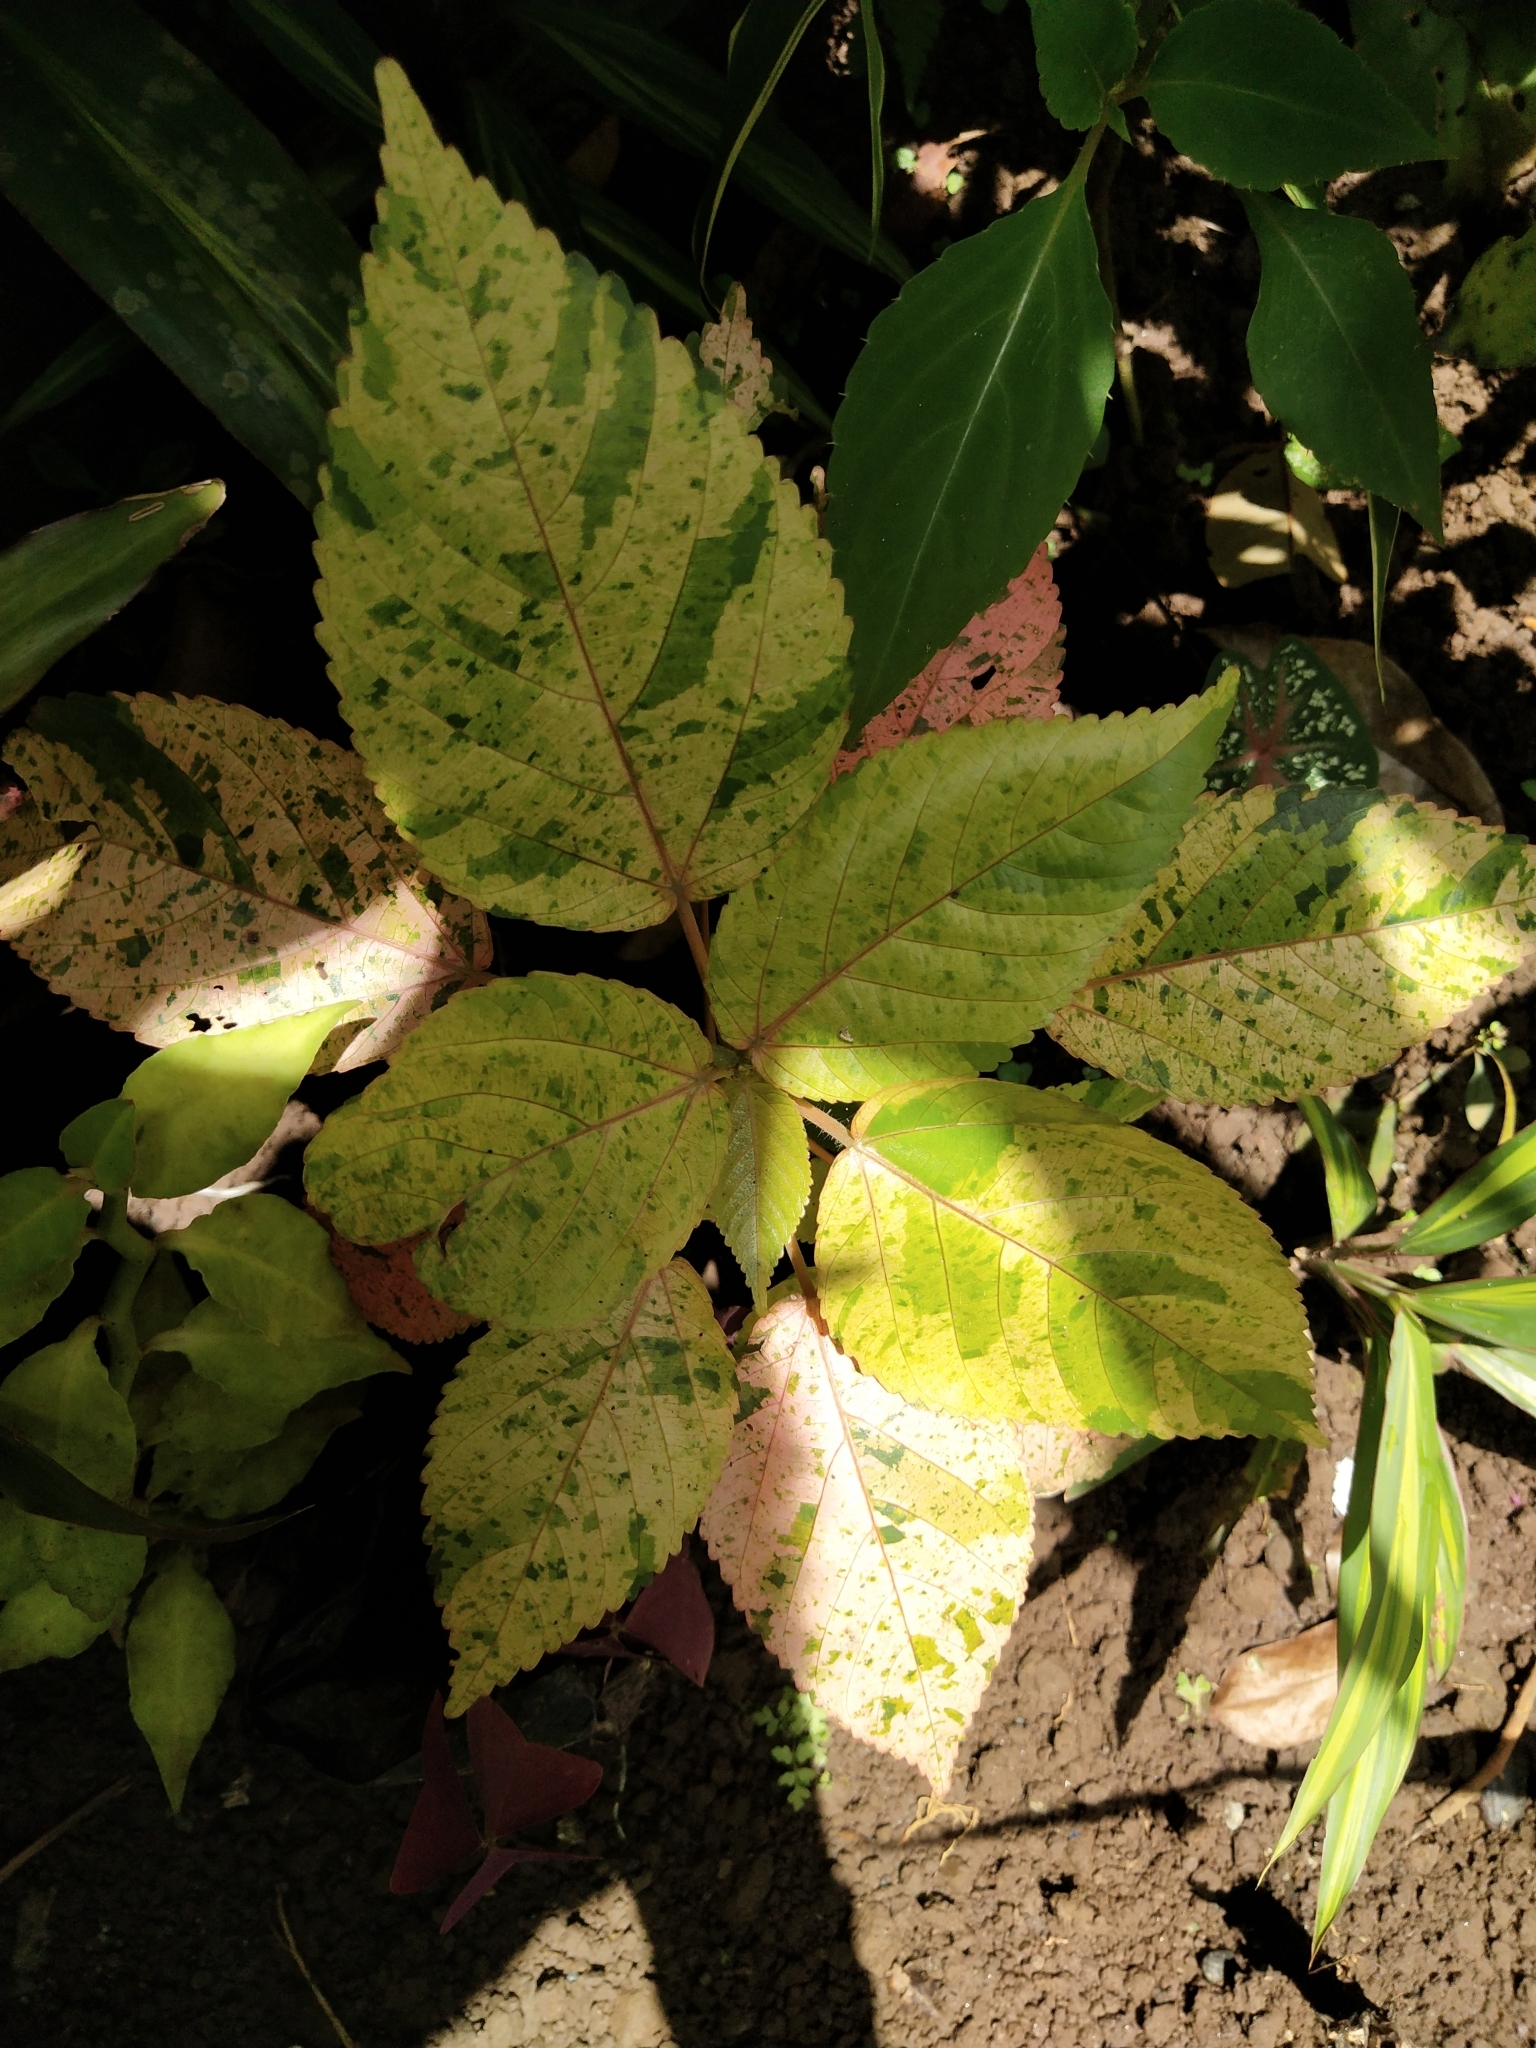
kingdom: Plantae
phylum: Tracheophyta
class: Magnoliopsida
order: Malpighiales
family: Euphorbiaceae
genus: Acalypha
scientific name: Acalypha wilkesiana
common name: Jacob's coat
